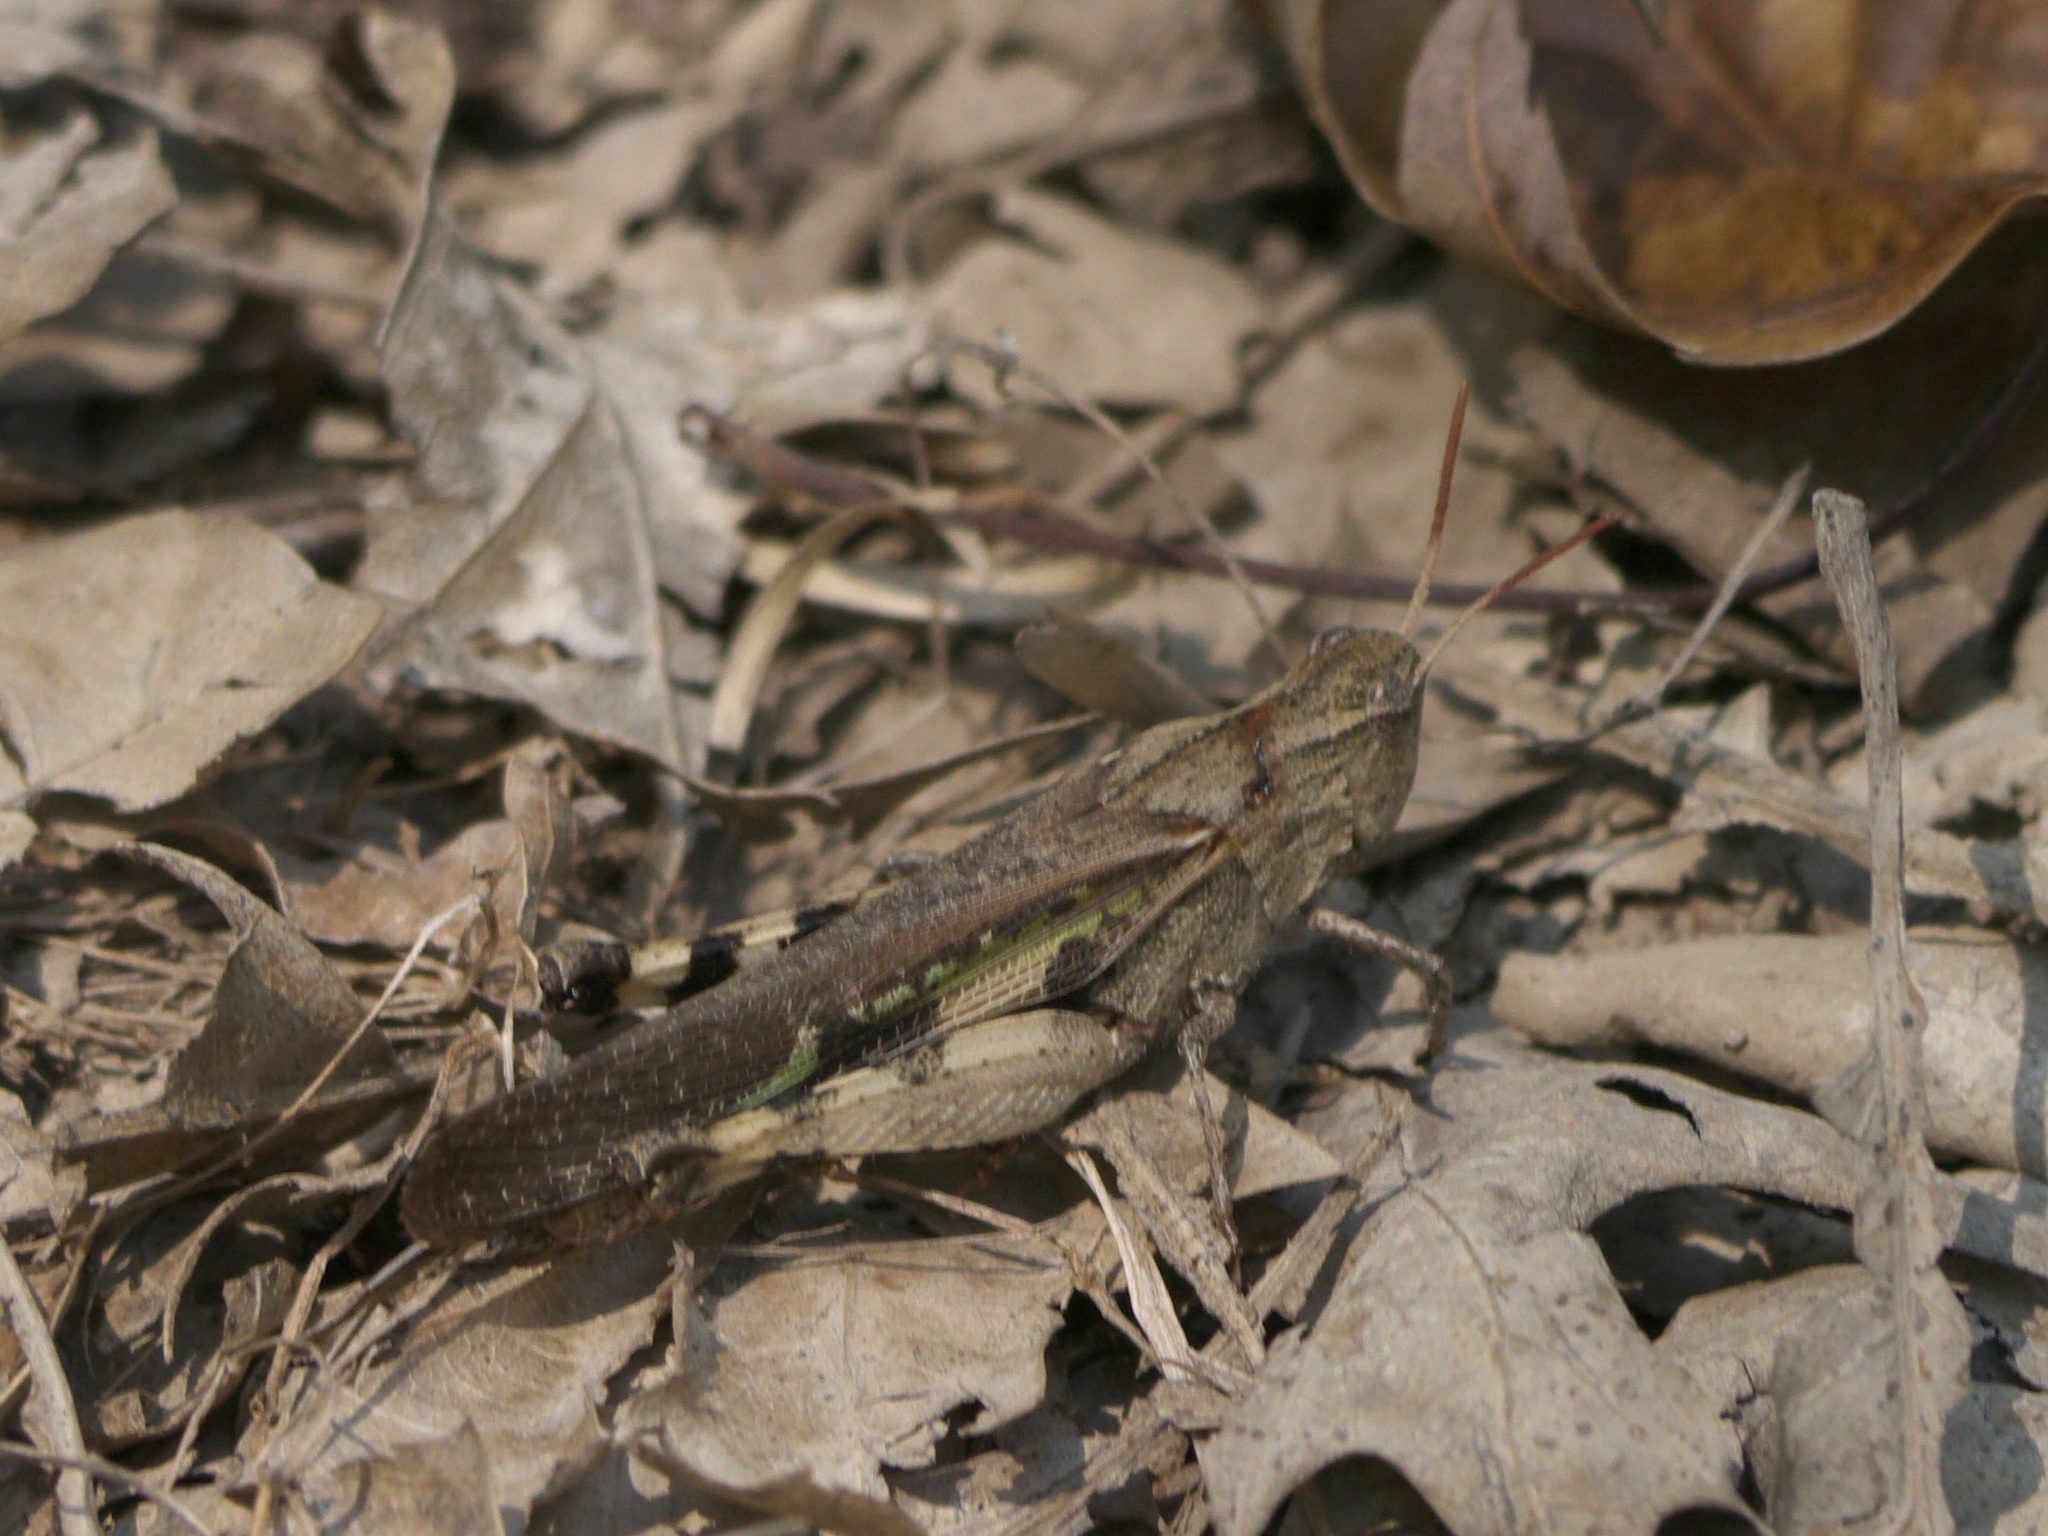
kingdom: Animalia
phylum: Arthropoda
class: Insecta
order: Orthoptera
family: Acrididae
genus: Chortophaga
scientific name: Chortophaga viridifasciata
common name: Green-striped grasshopper
